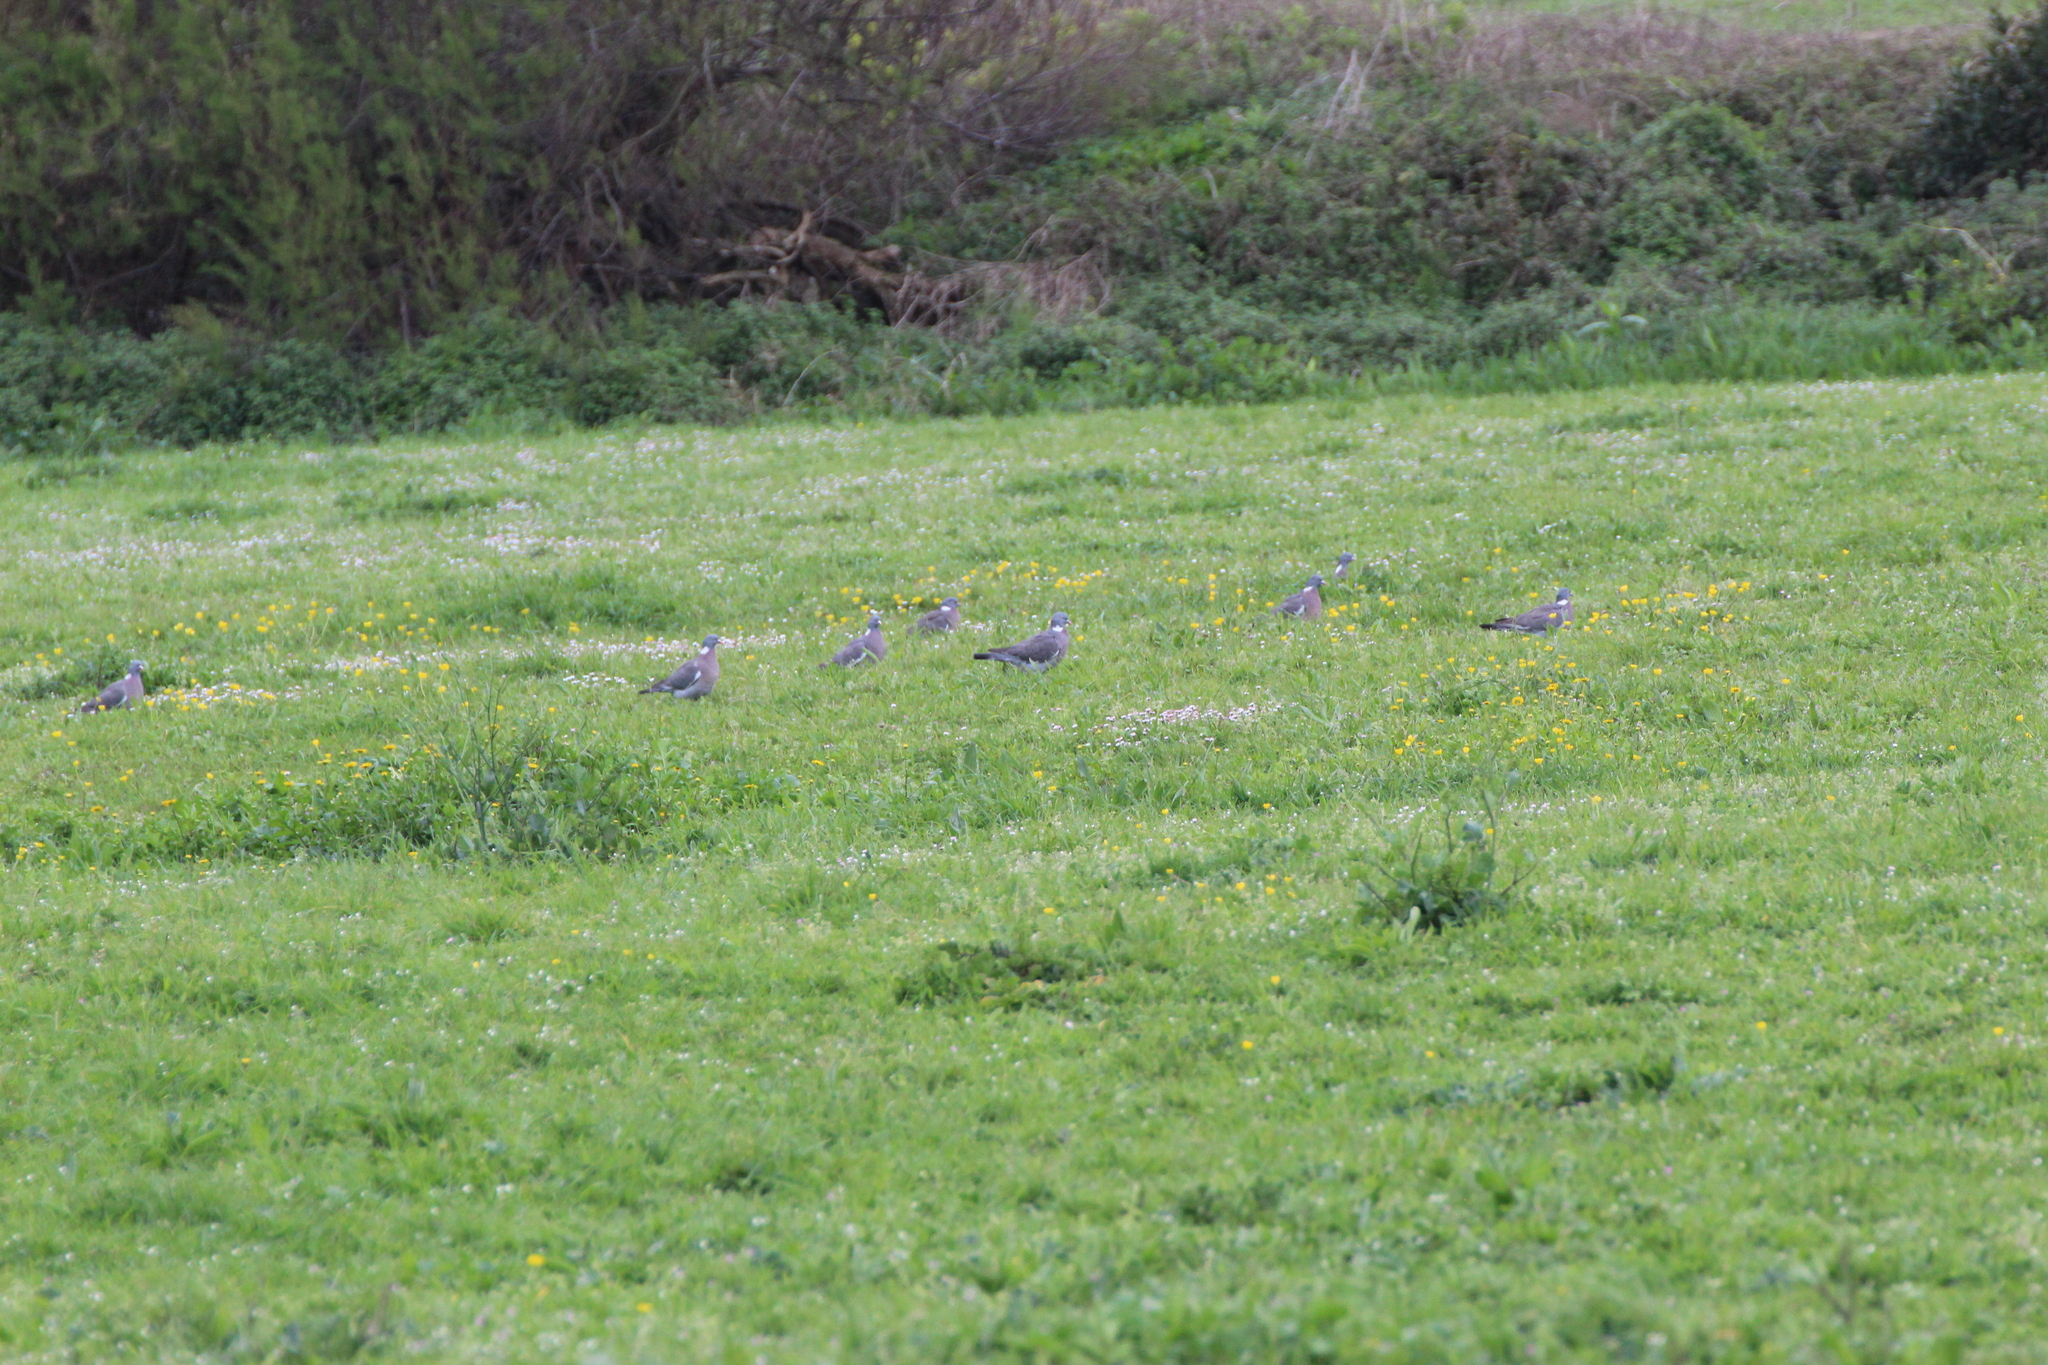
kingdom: Animalia
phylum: Chordata
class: Aves
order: Columbiformes
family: Columbidae
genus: Columba
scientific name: Columba palumbus
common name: Common wood pigeon
